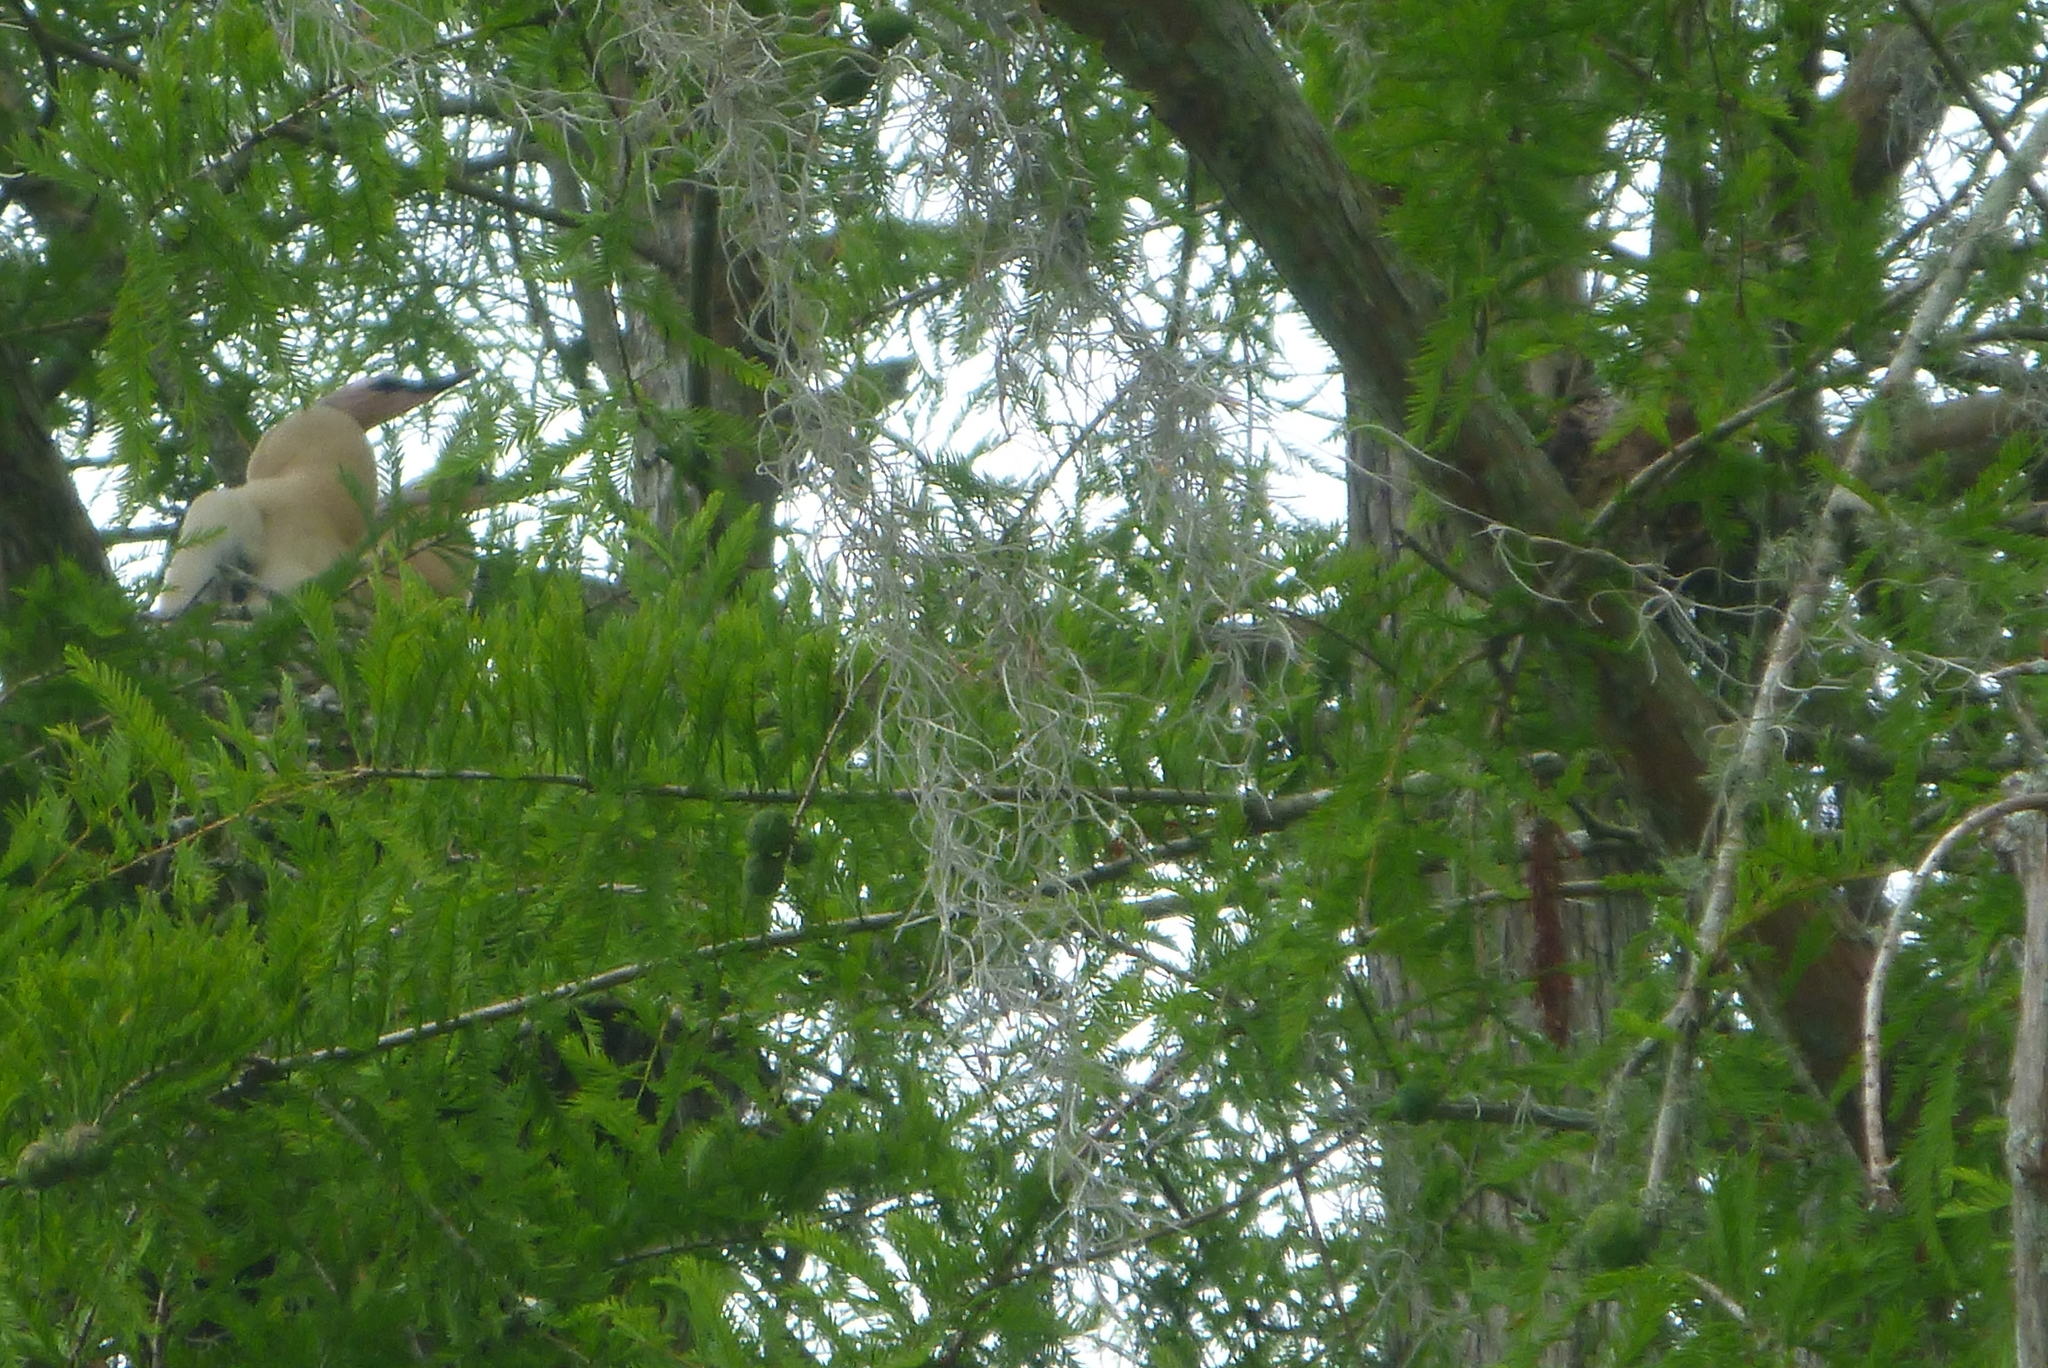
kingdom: Animalia
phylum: Chordata
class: Aves
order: Suliformes
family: Anhingidae
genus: Anhinga
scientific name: Anhinga anhinga
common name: Anhinga
